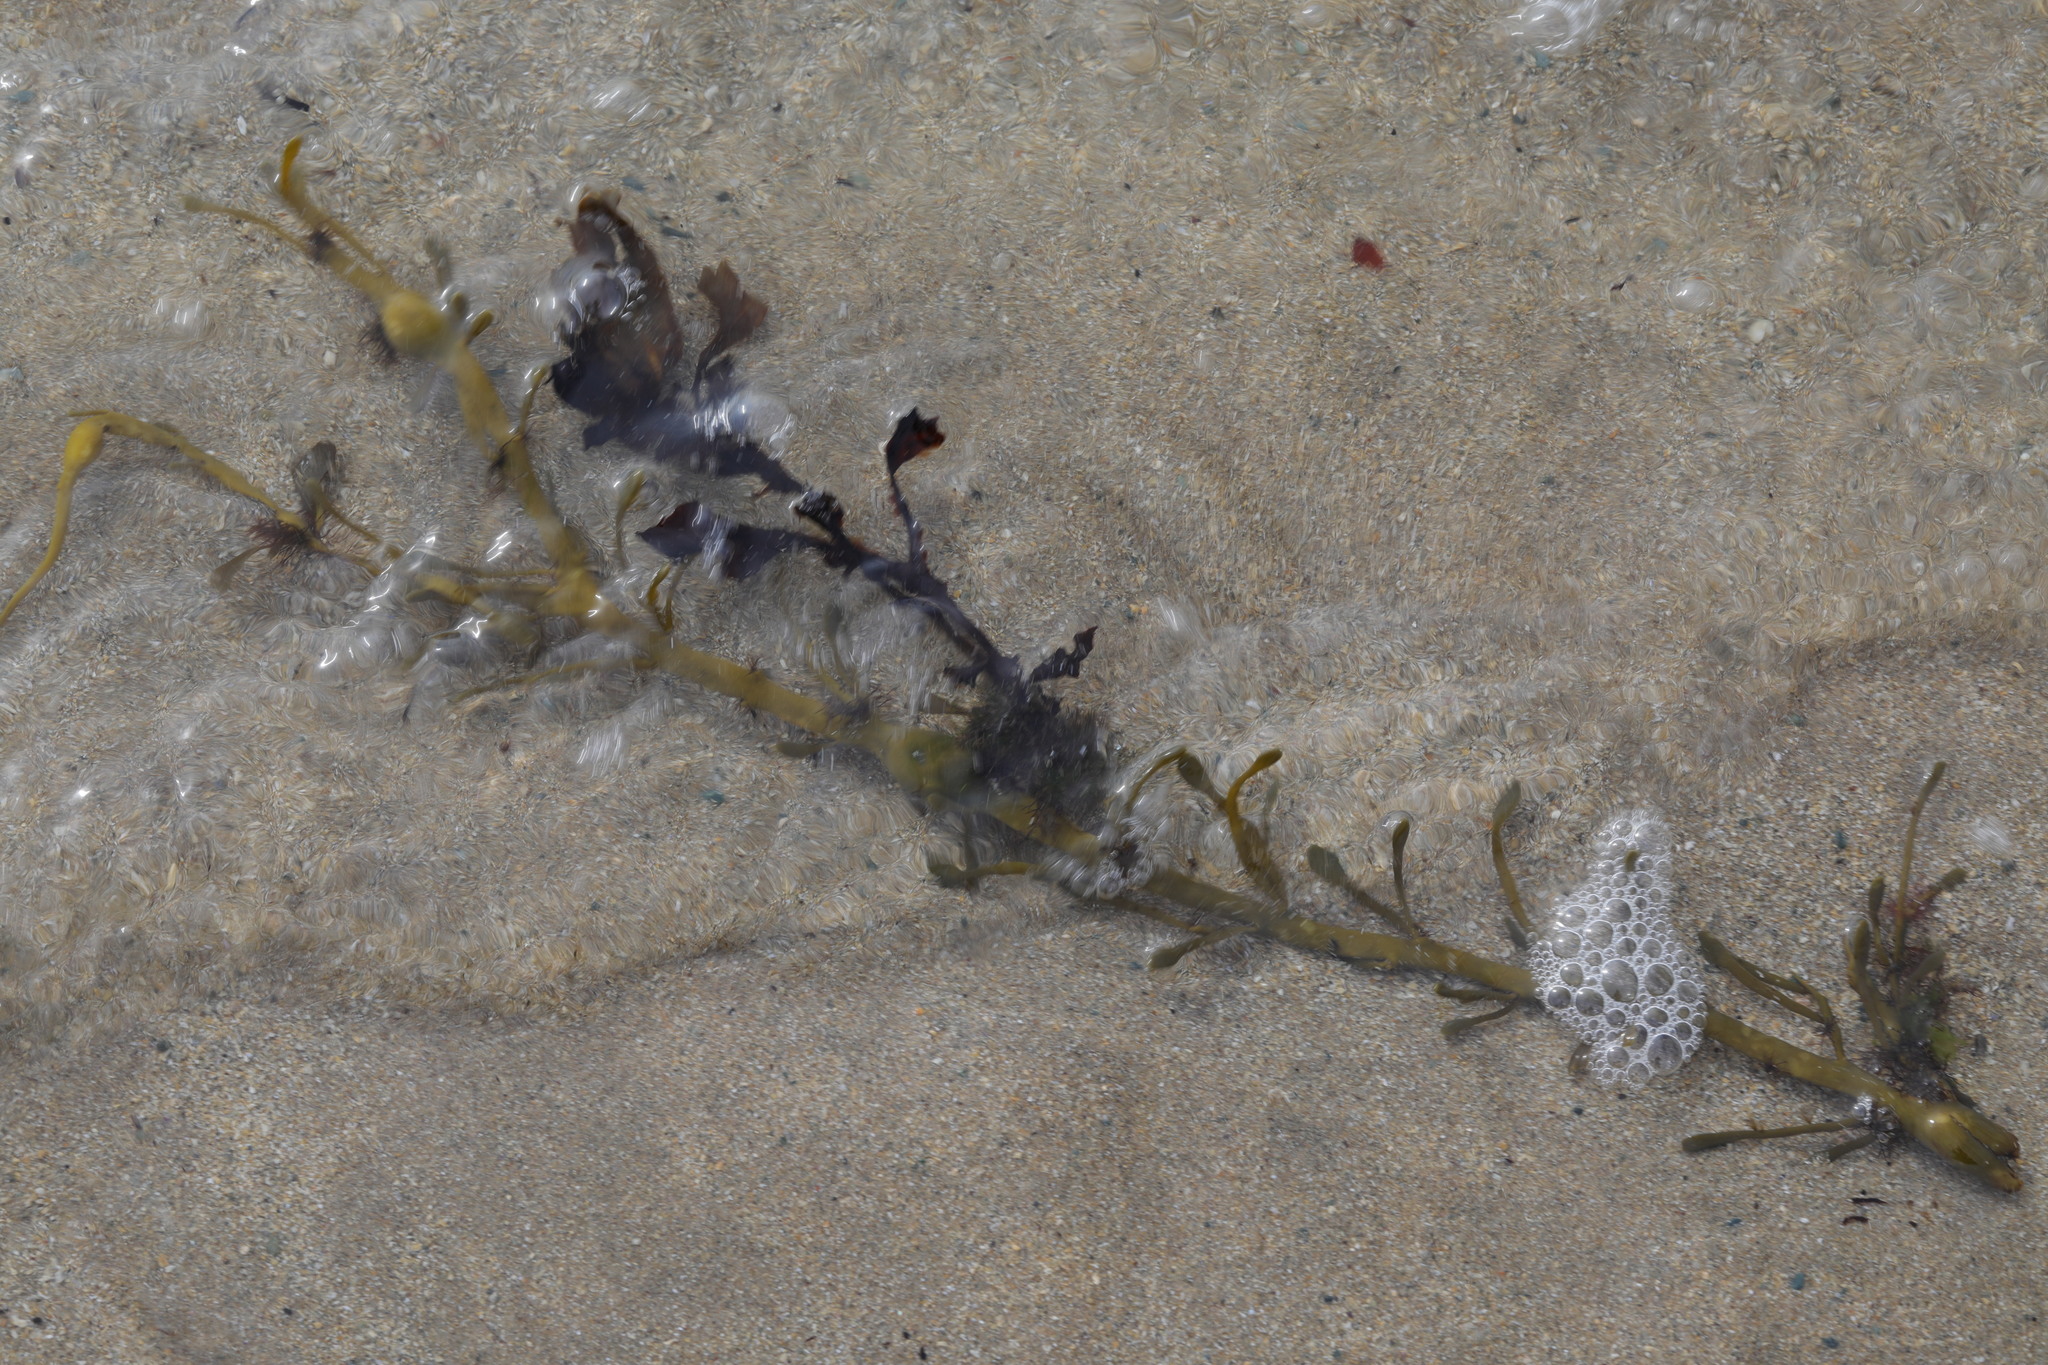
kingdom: Chromista
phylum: Ochrophyta
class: Phaeophyceae
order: Fucales
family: Fucaceae
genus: Ascophyllum
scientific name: Ascophyllum nodosum
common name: Knotted wrack
